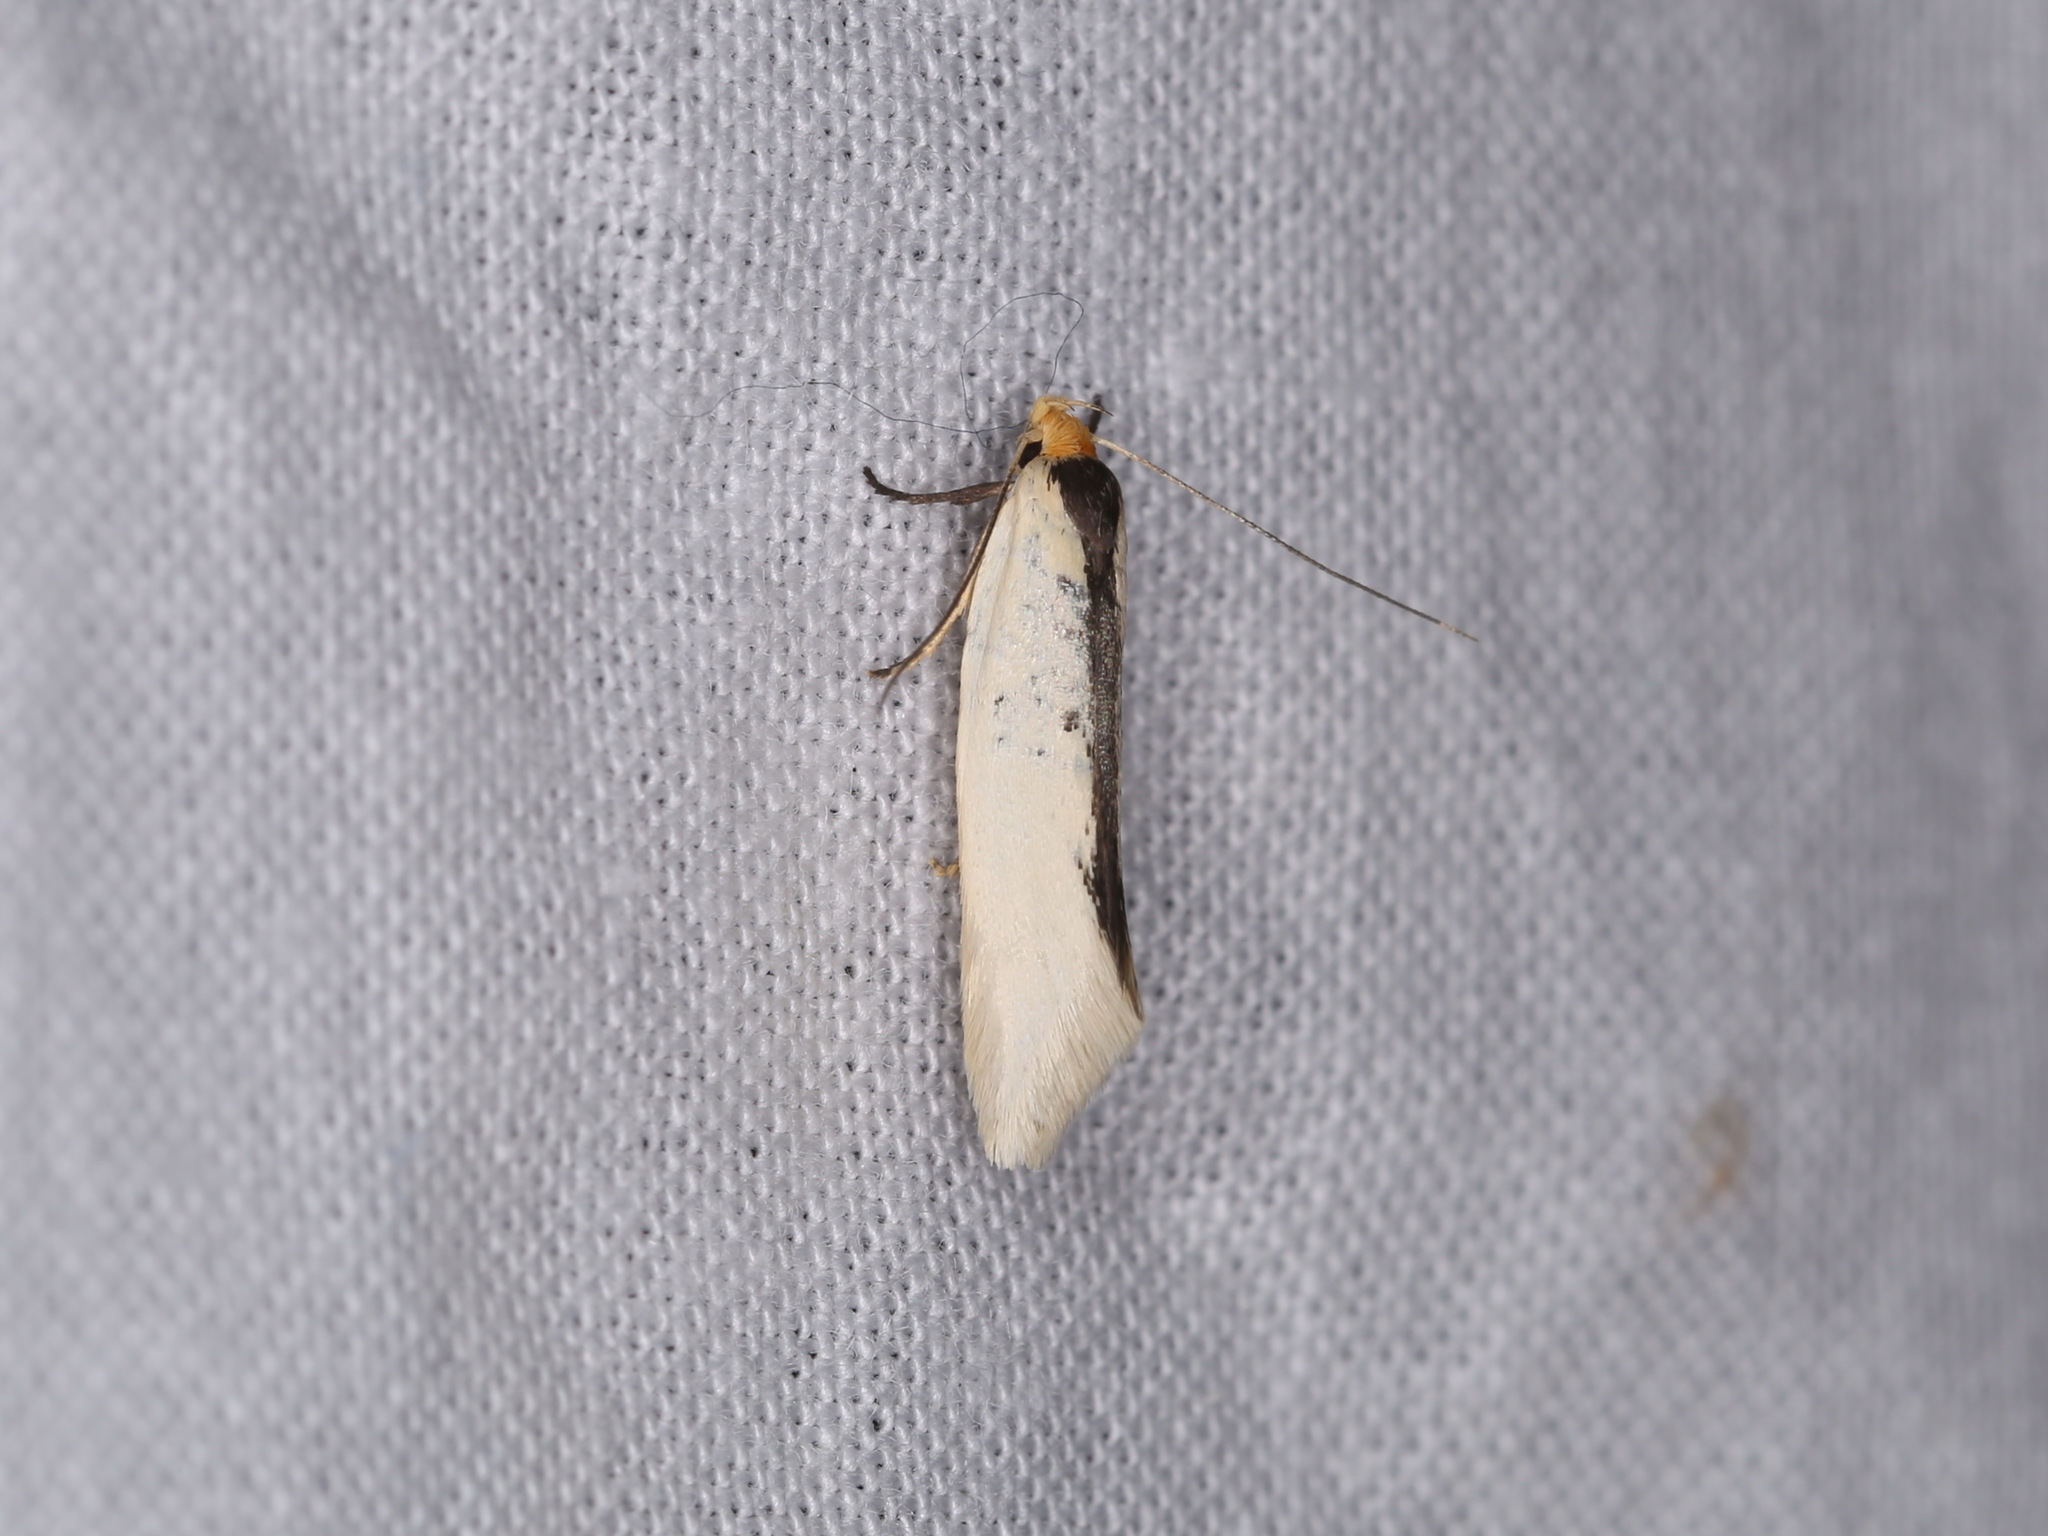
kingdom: Animalia
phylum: Arthropoda
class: Insecta
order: Lepidoptera
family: Oecophoridae
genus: Ocystola
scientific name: Ocystola chionea
